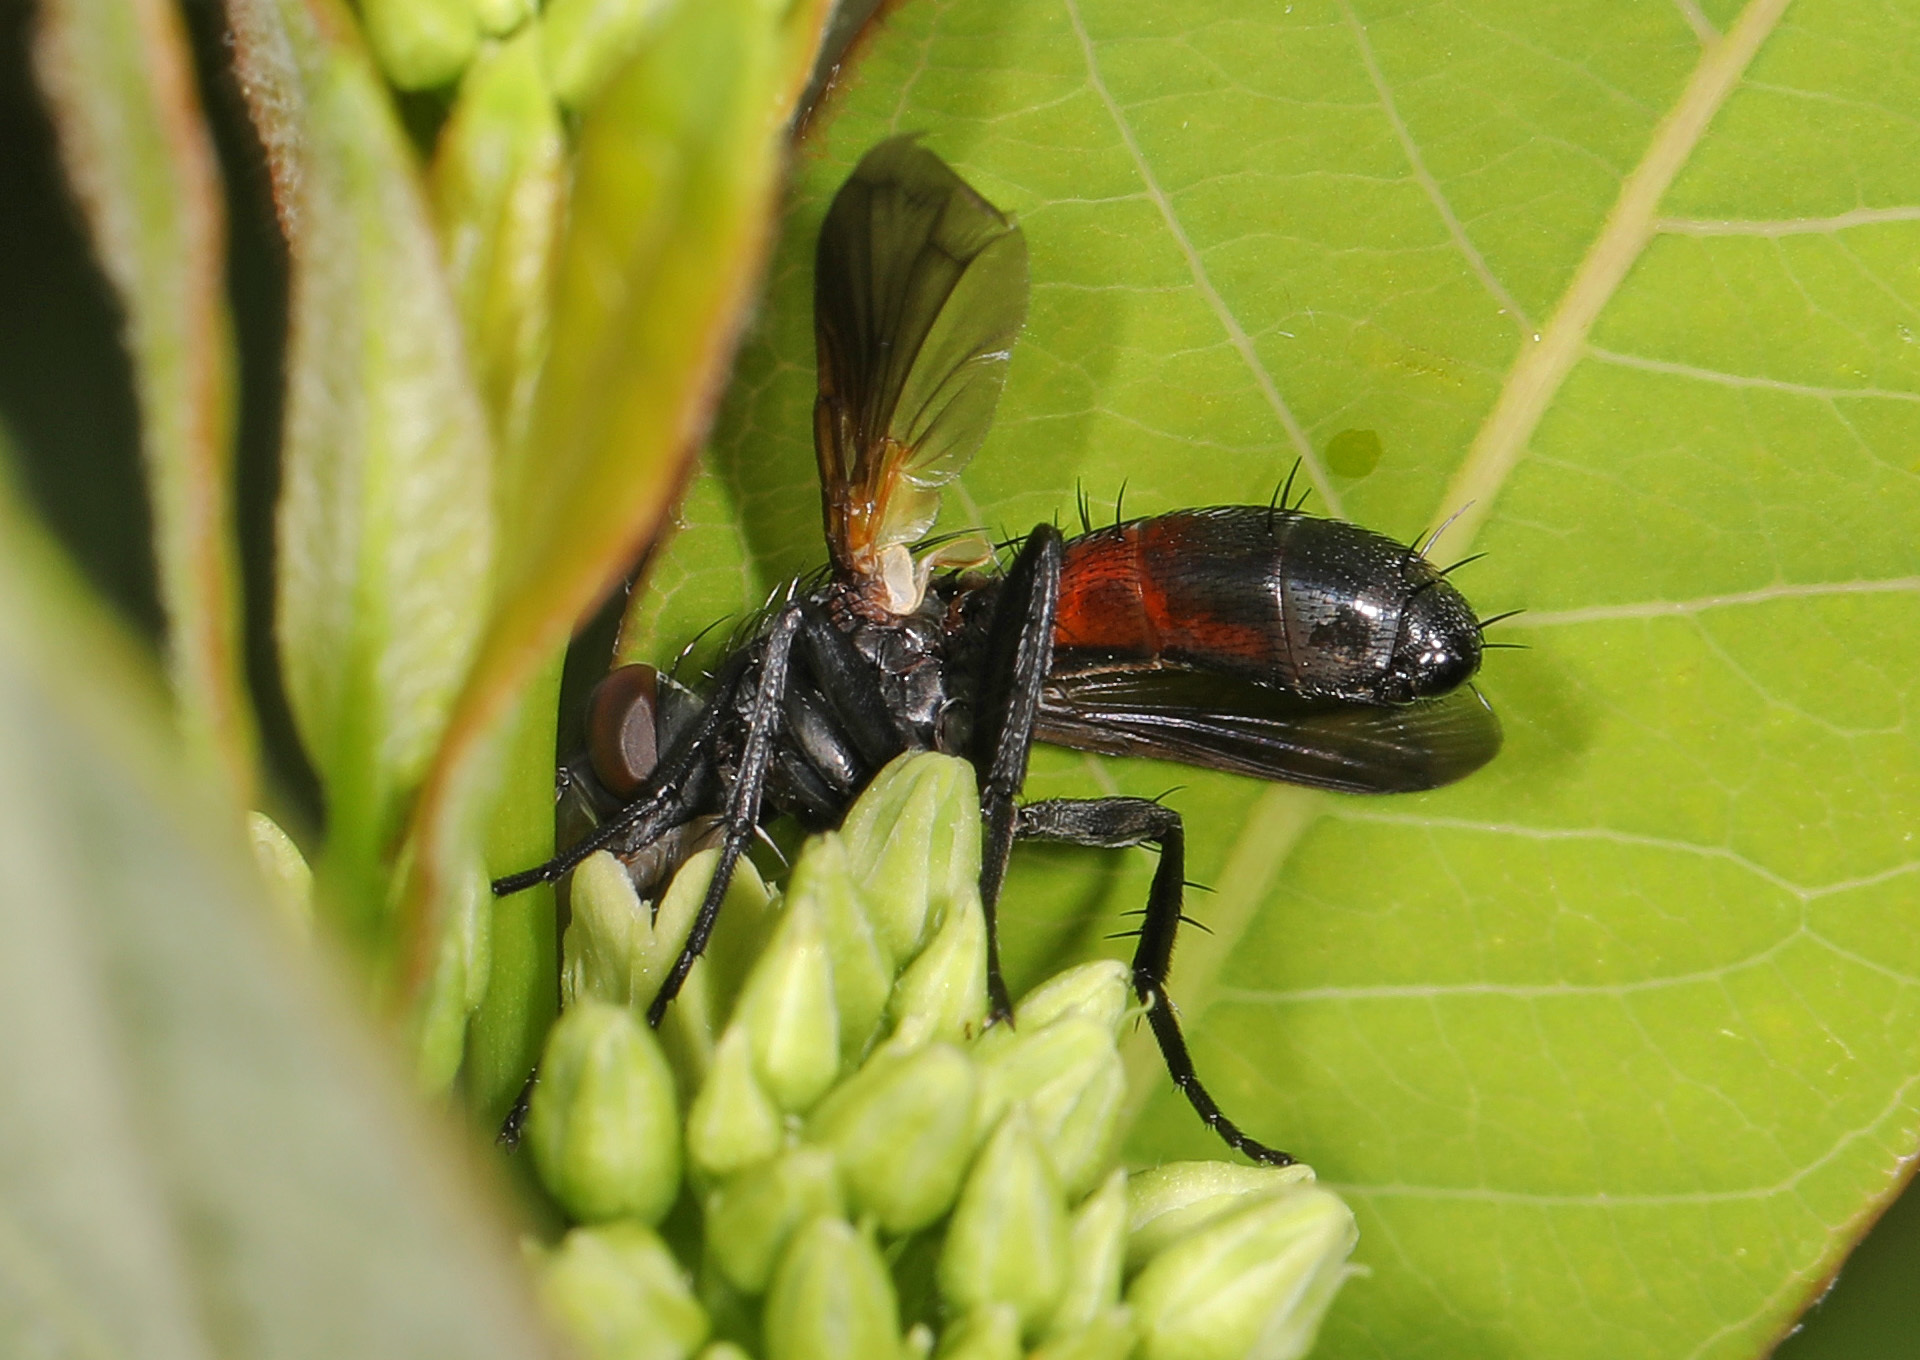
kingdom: Animalia
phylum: Arthropoda
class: Insecta
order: Diptera
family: Tachinidae
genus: Cylindromyia
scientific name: Cylindromyia
